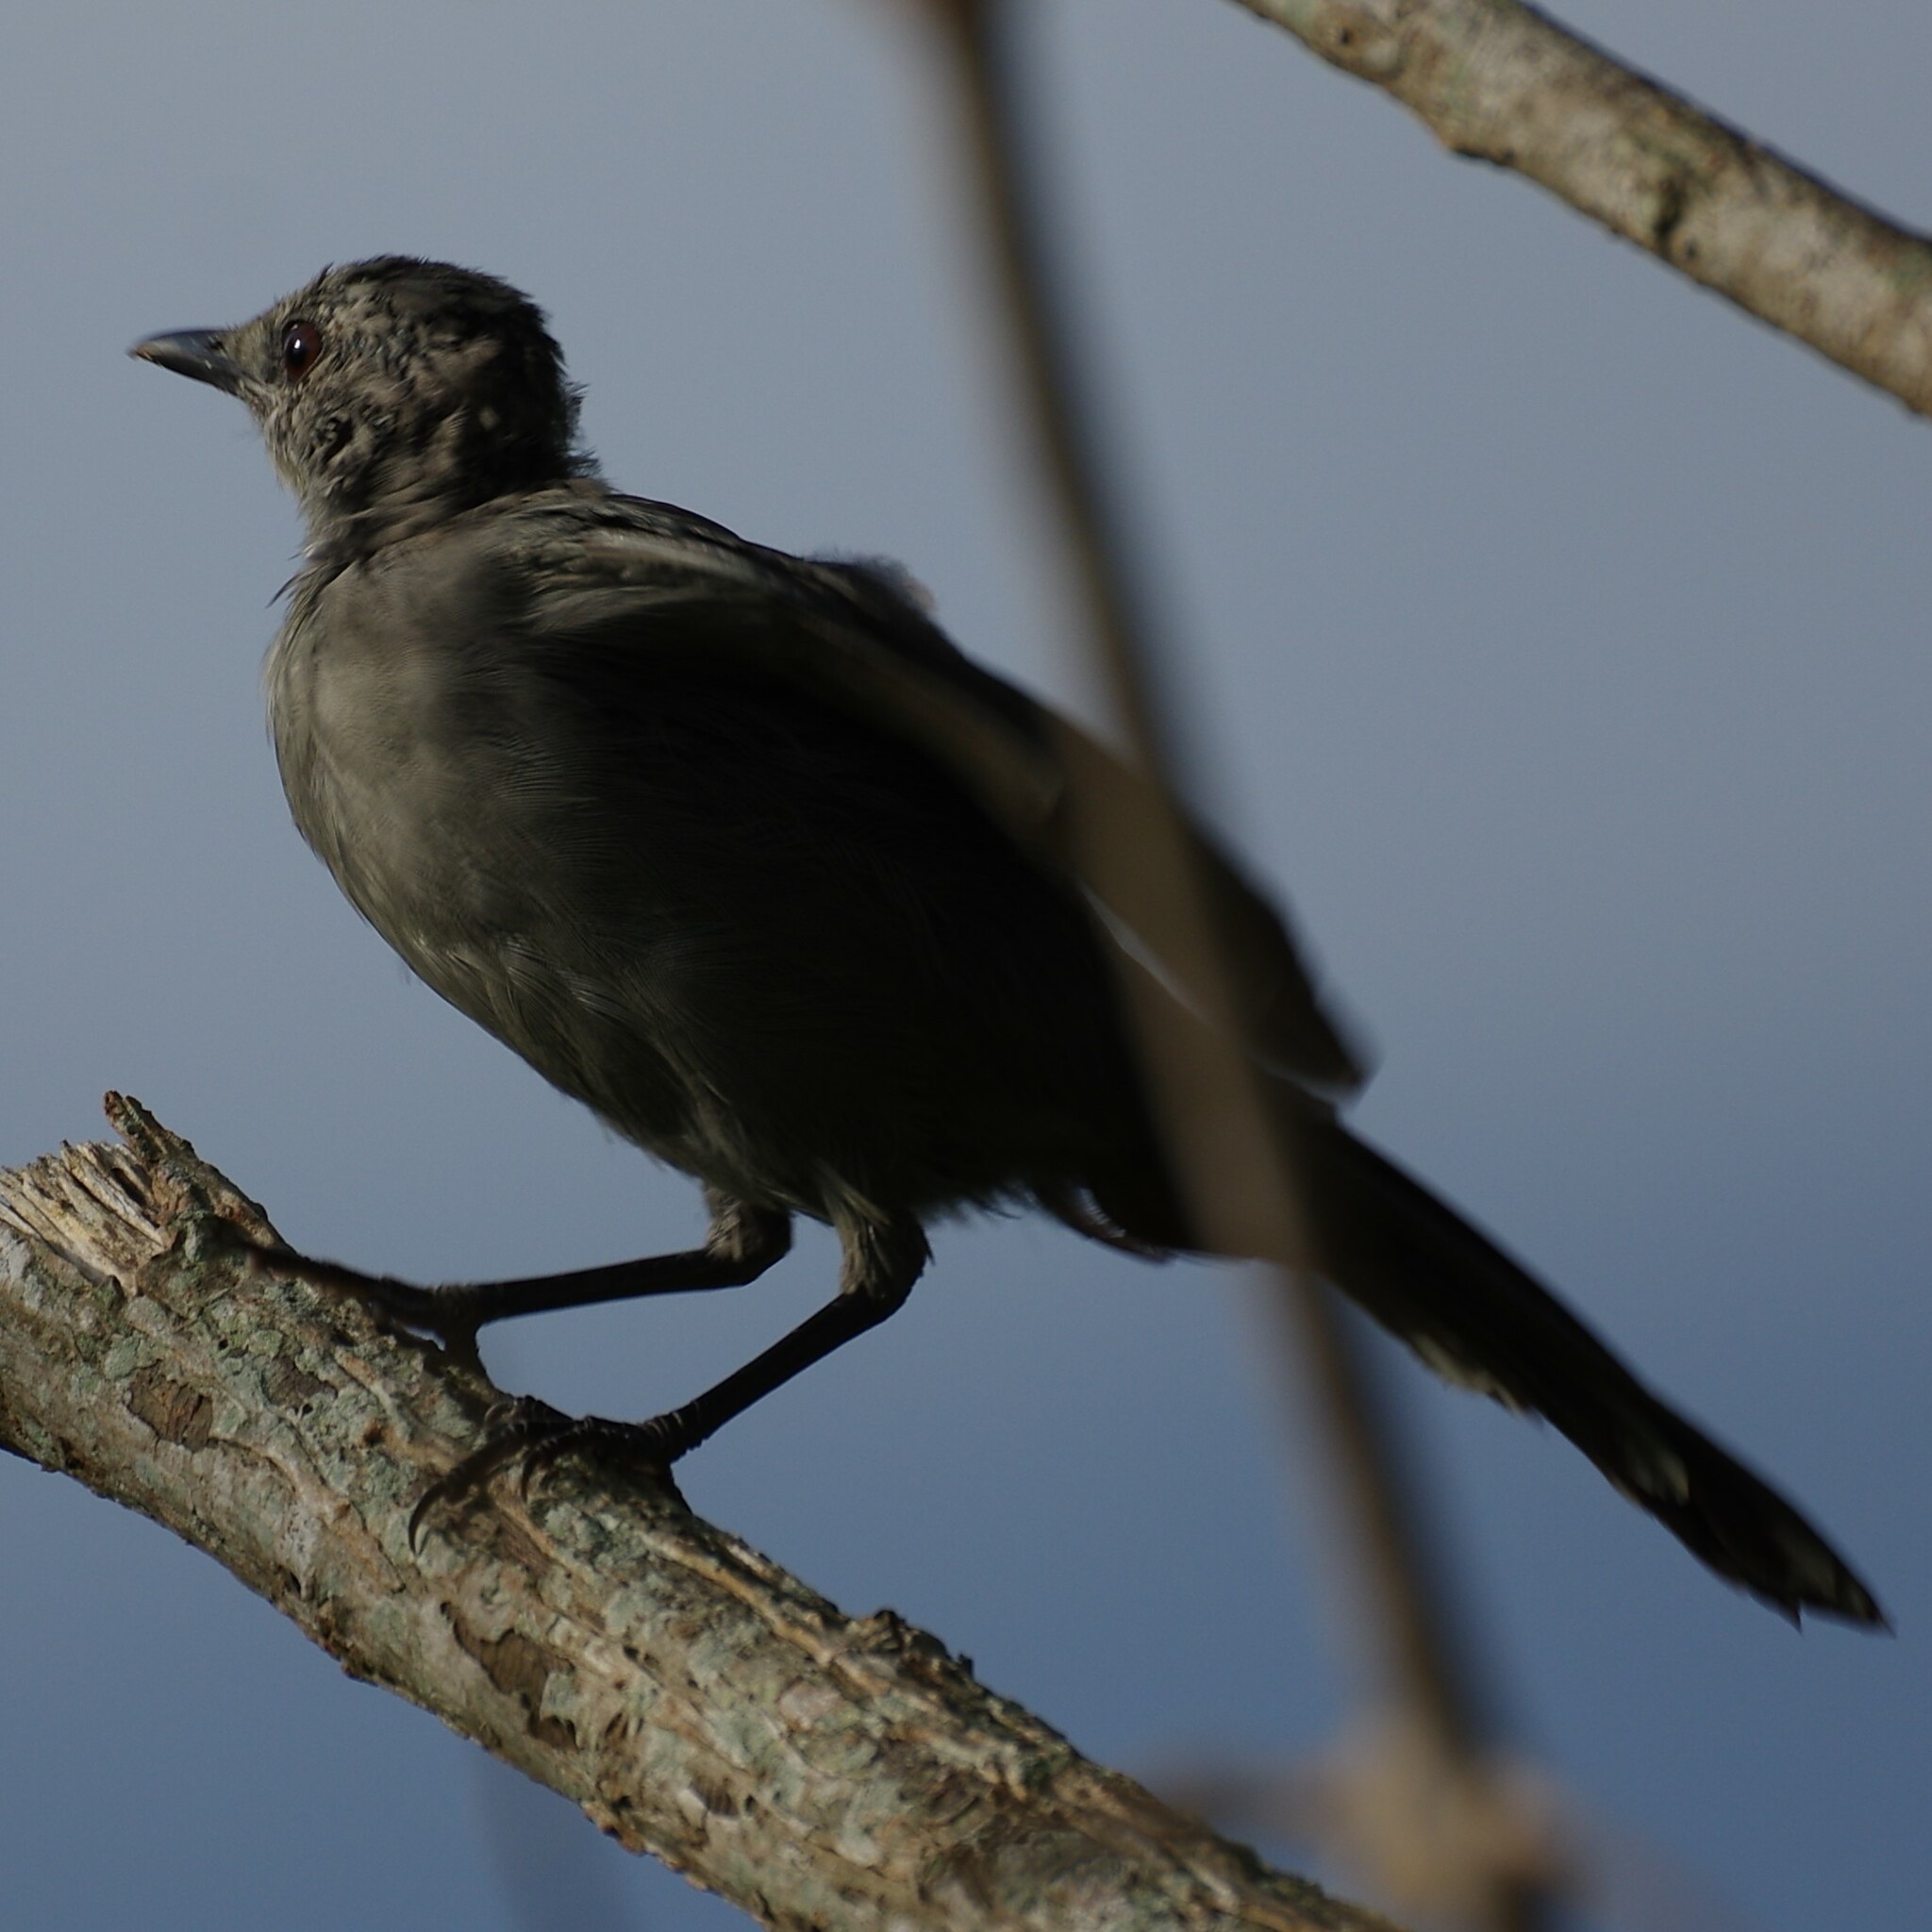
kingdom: Animalia
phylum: Chordata
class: Aves
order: Passeriformes
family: Mimidae
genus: Dumetella
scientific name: Dumetella carolinensis
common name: Gray catbird
